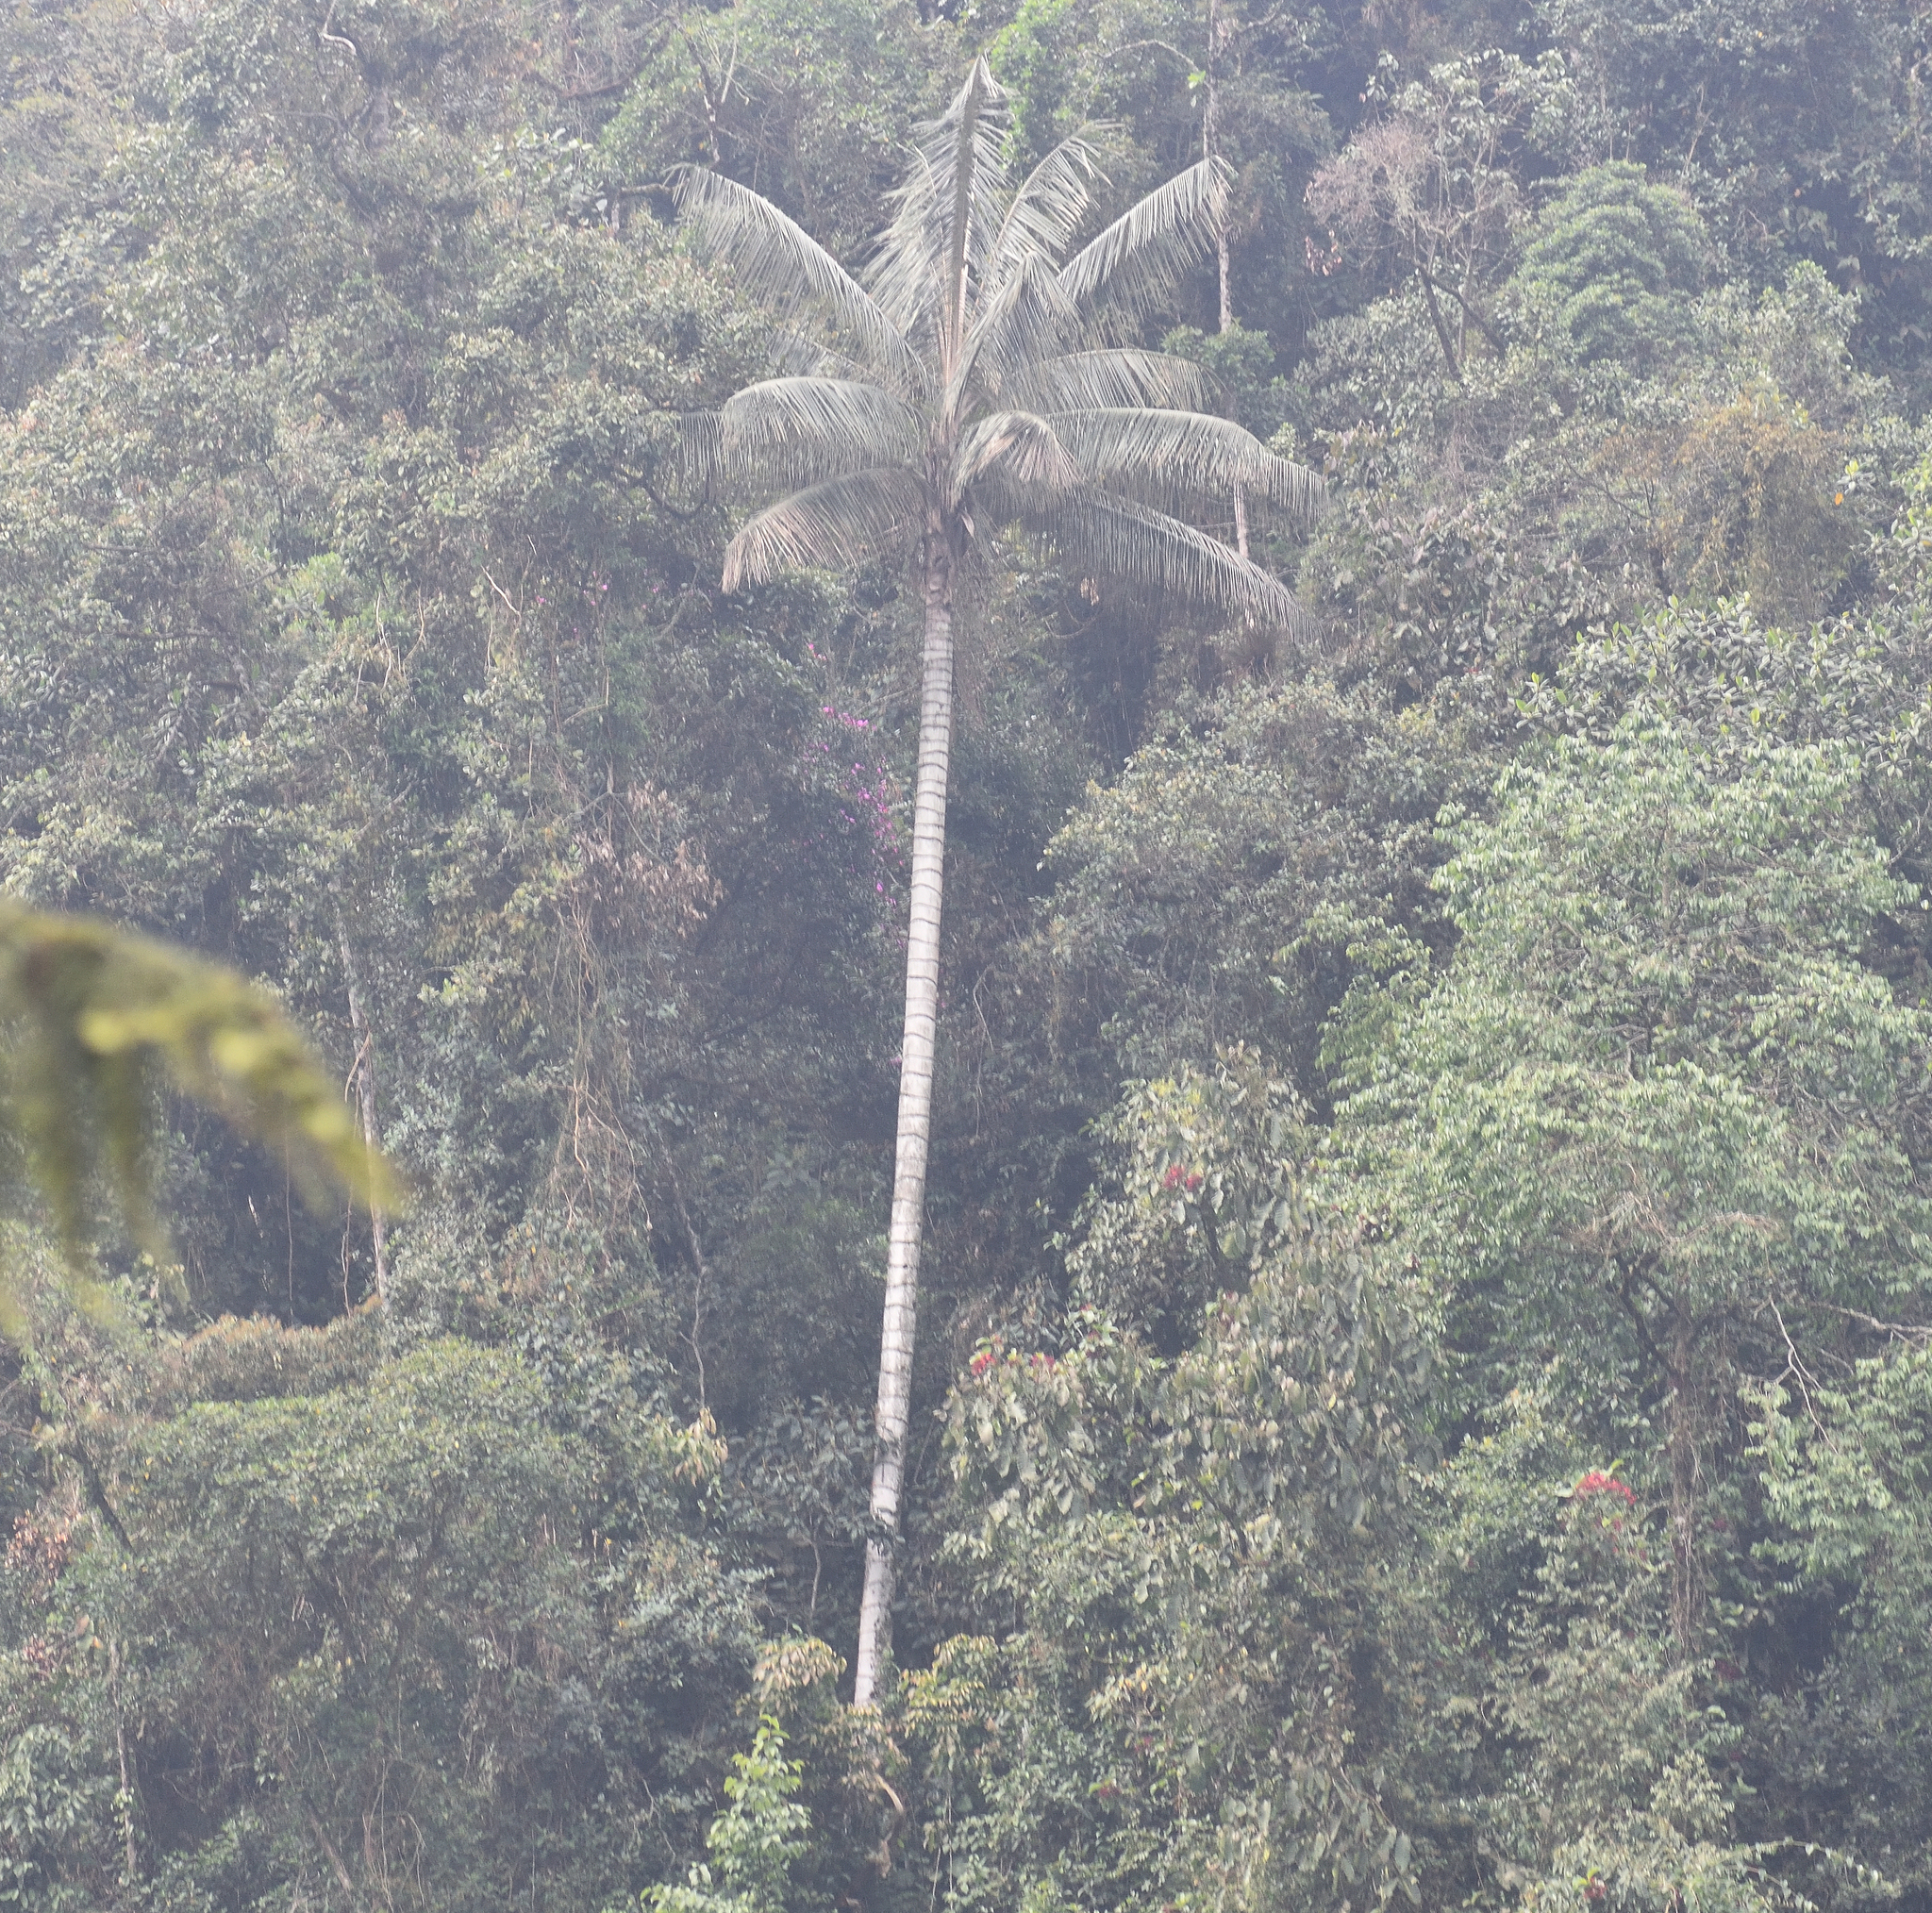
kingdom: Plantae
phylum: Tracheophyta
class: Liliopsida
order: Arecales
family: Arecaceae
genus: Ceroxylon
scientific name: Ceroxylon quindiuense
